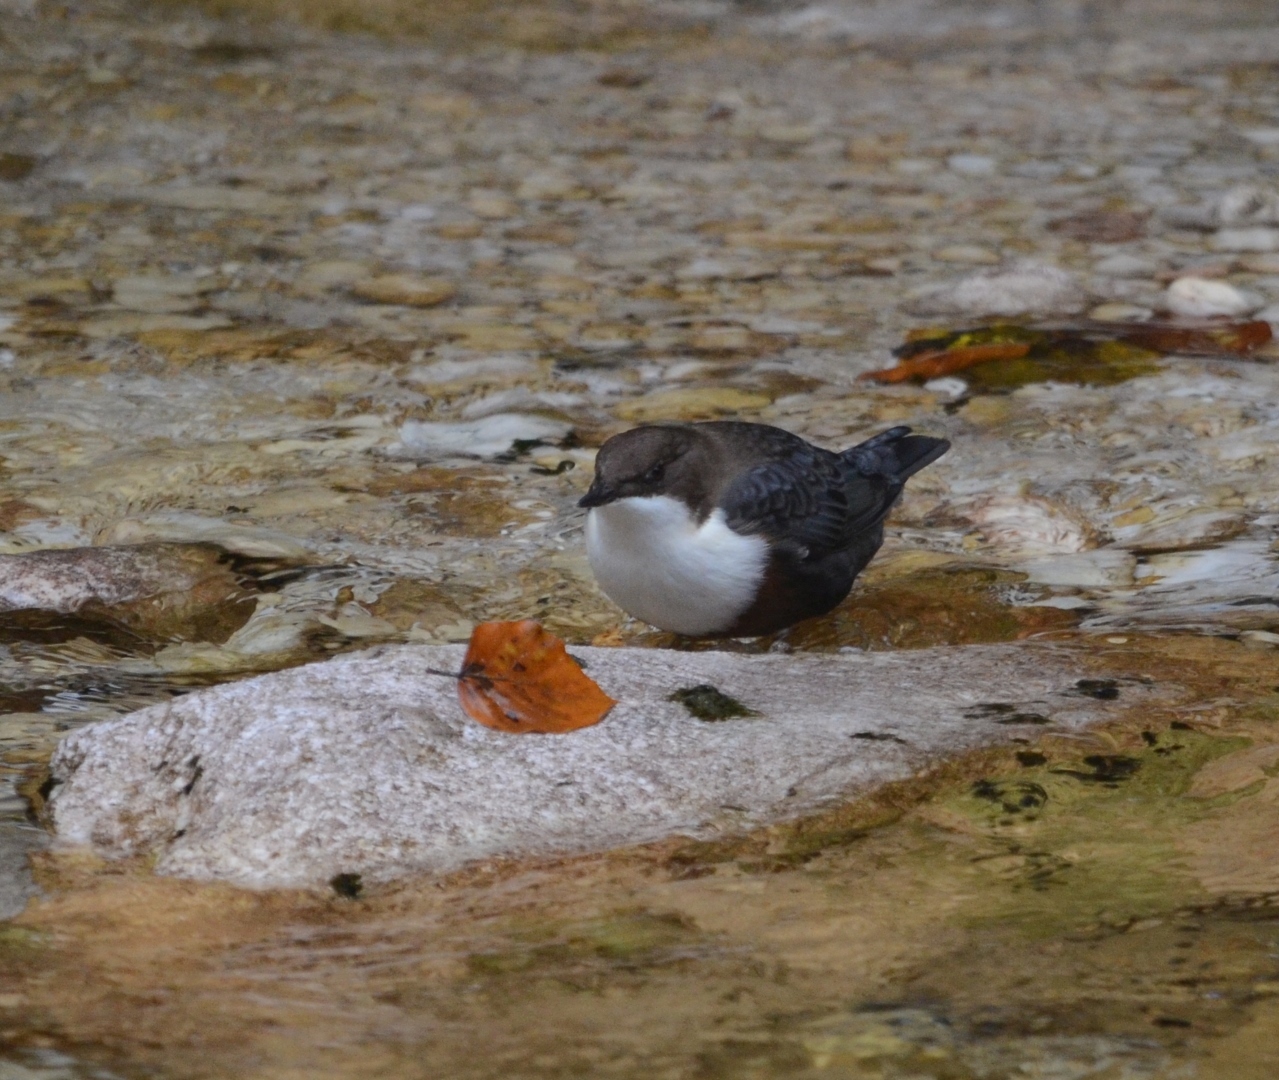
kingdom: Animalia
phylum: Chordata
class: Aves
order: Passeriformes
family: Cinclidae
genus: Cinclus
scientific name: Cinclus cinclus
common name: White-throated dipper
